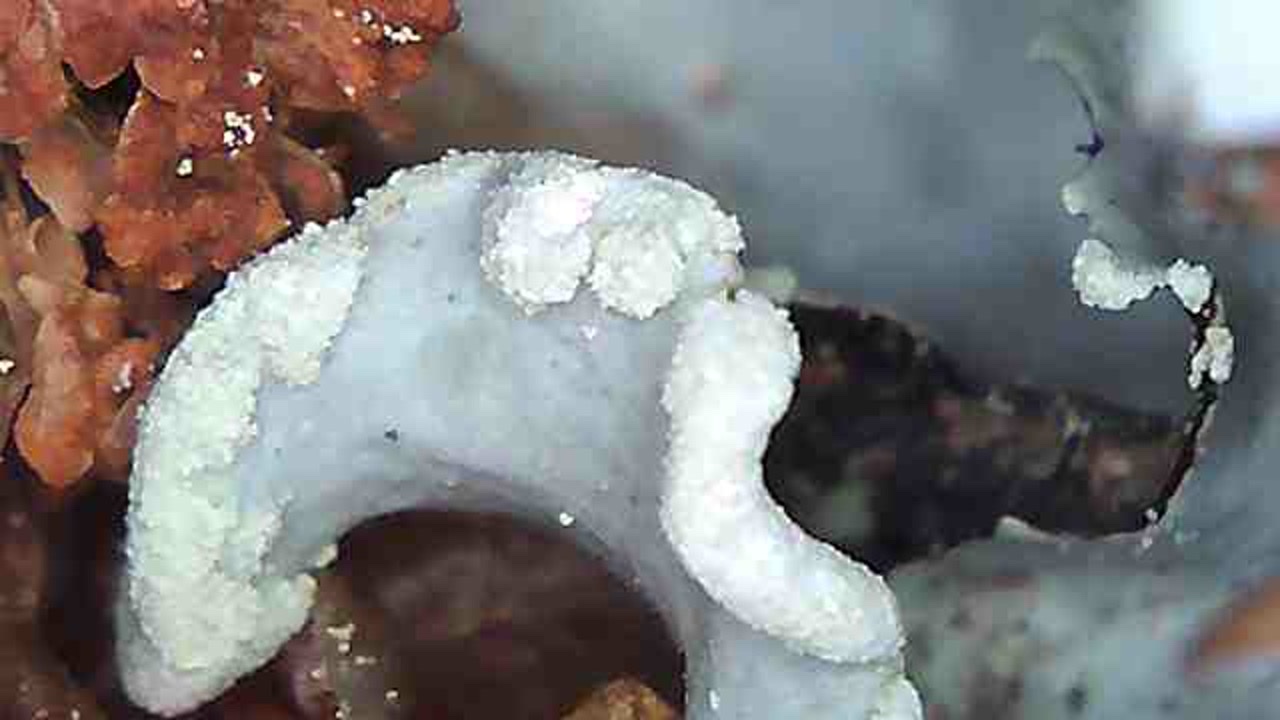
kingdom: Fungi
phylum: Ascomycota
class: Lecanoromycetes
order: Lecanorales
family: Parmeliaceae
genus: Parmotrema
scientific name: Parmotrema perlatum
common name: Black stone flower
